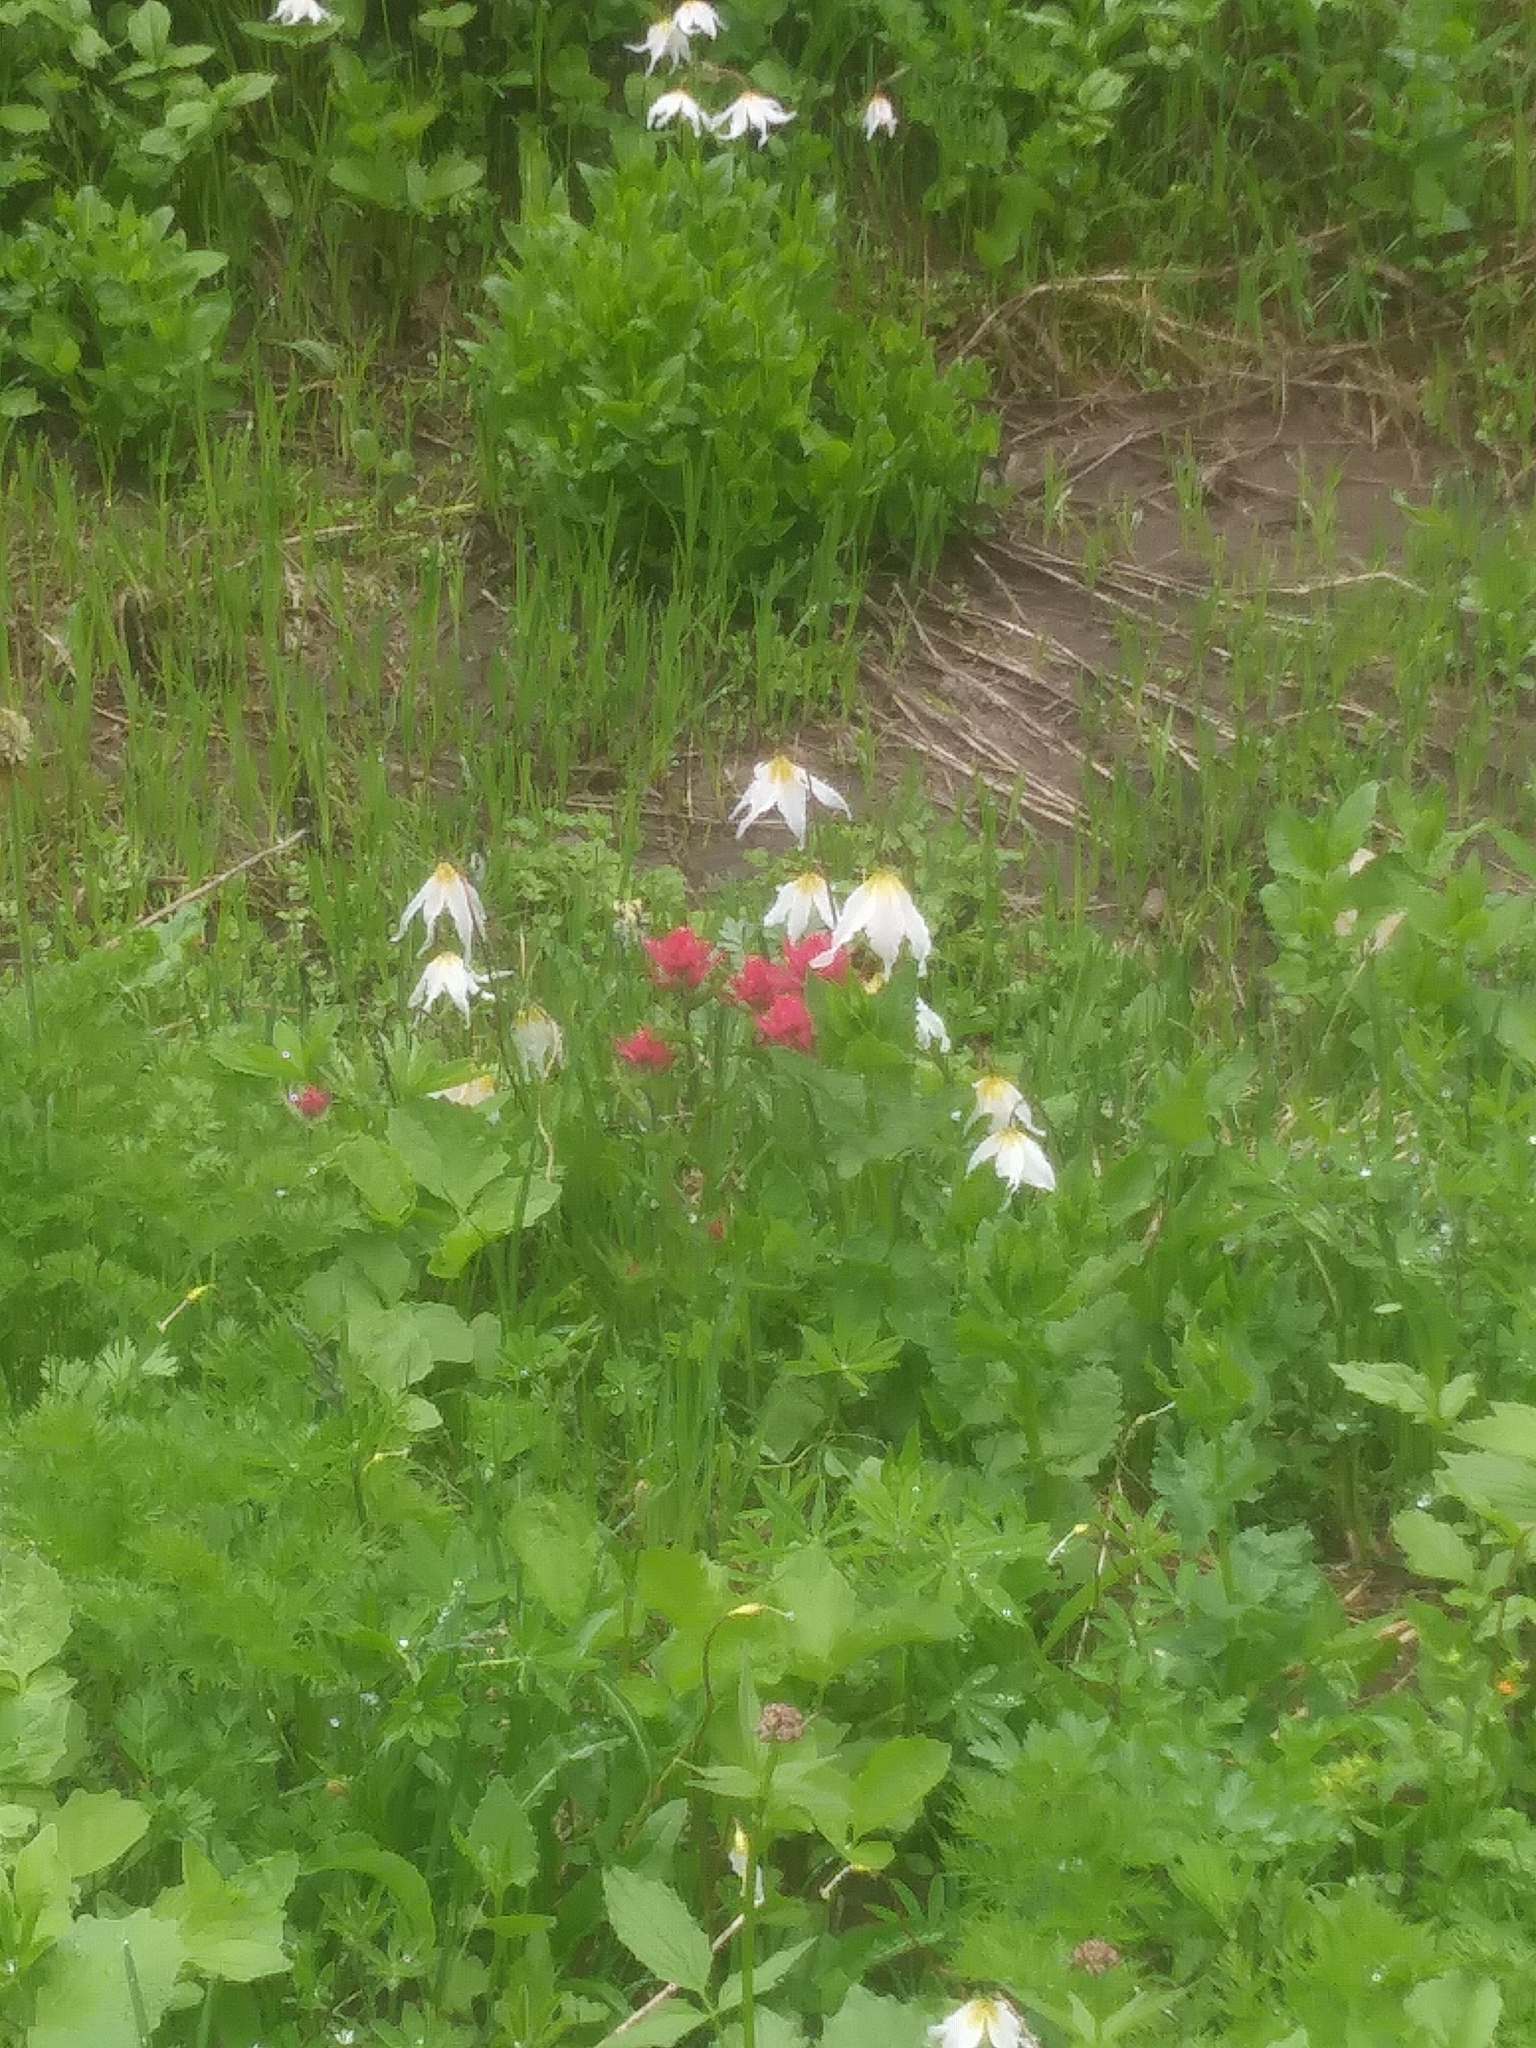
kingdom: Plantae
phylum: Tracheophyta
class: Liliopsida
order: Liliales
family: Liliaceae
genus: Erythronium
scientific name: Erythronium montanum
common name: Avalanche lily
